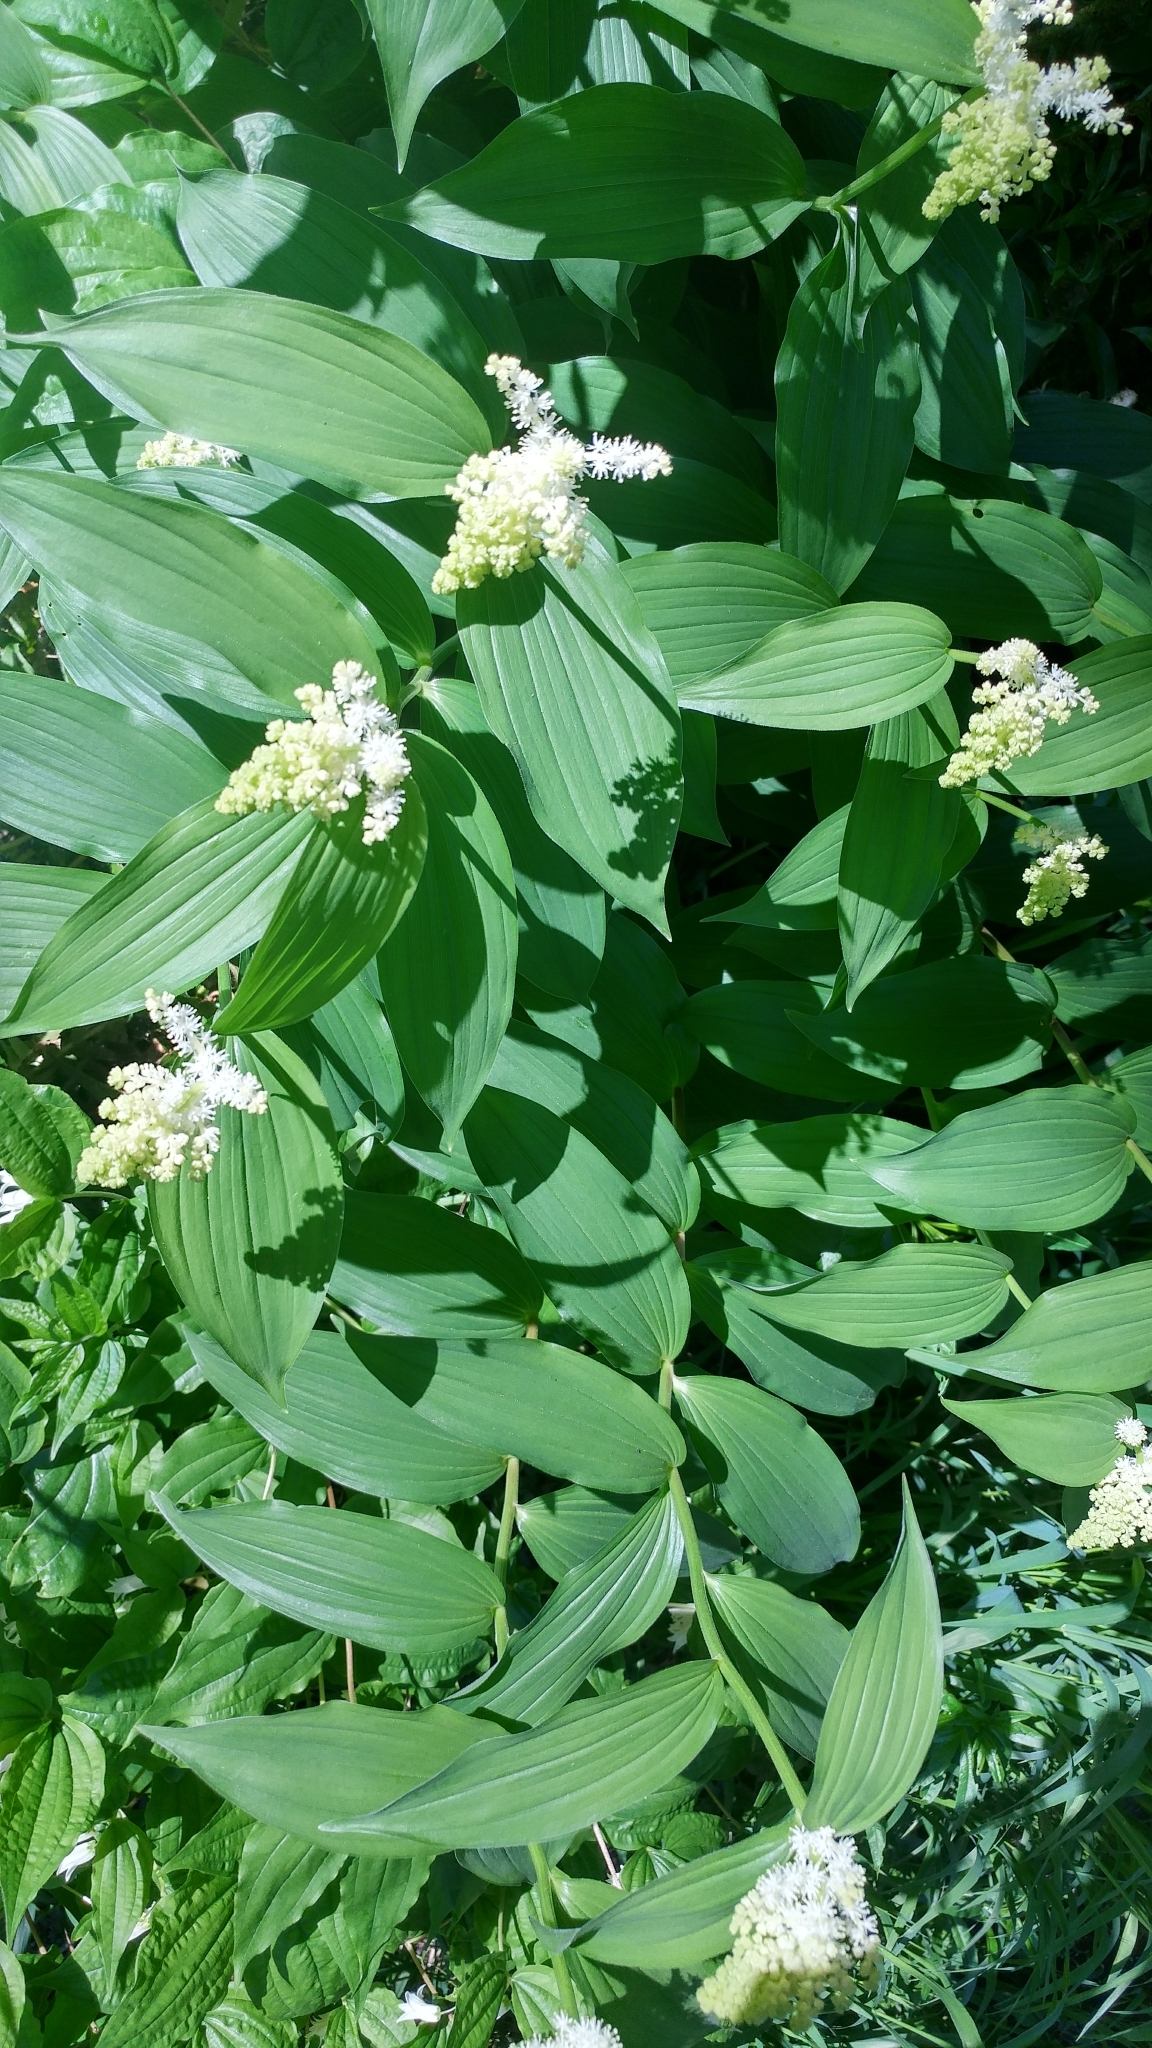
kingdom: Plantae
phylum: Tracheophyta
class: Liliopsida
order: Asparagales
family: Asparagaceae
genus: Maianthemum
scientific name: Maianthemum racemosum
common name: False spikenard
